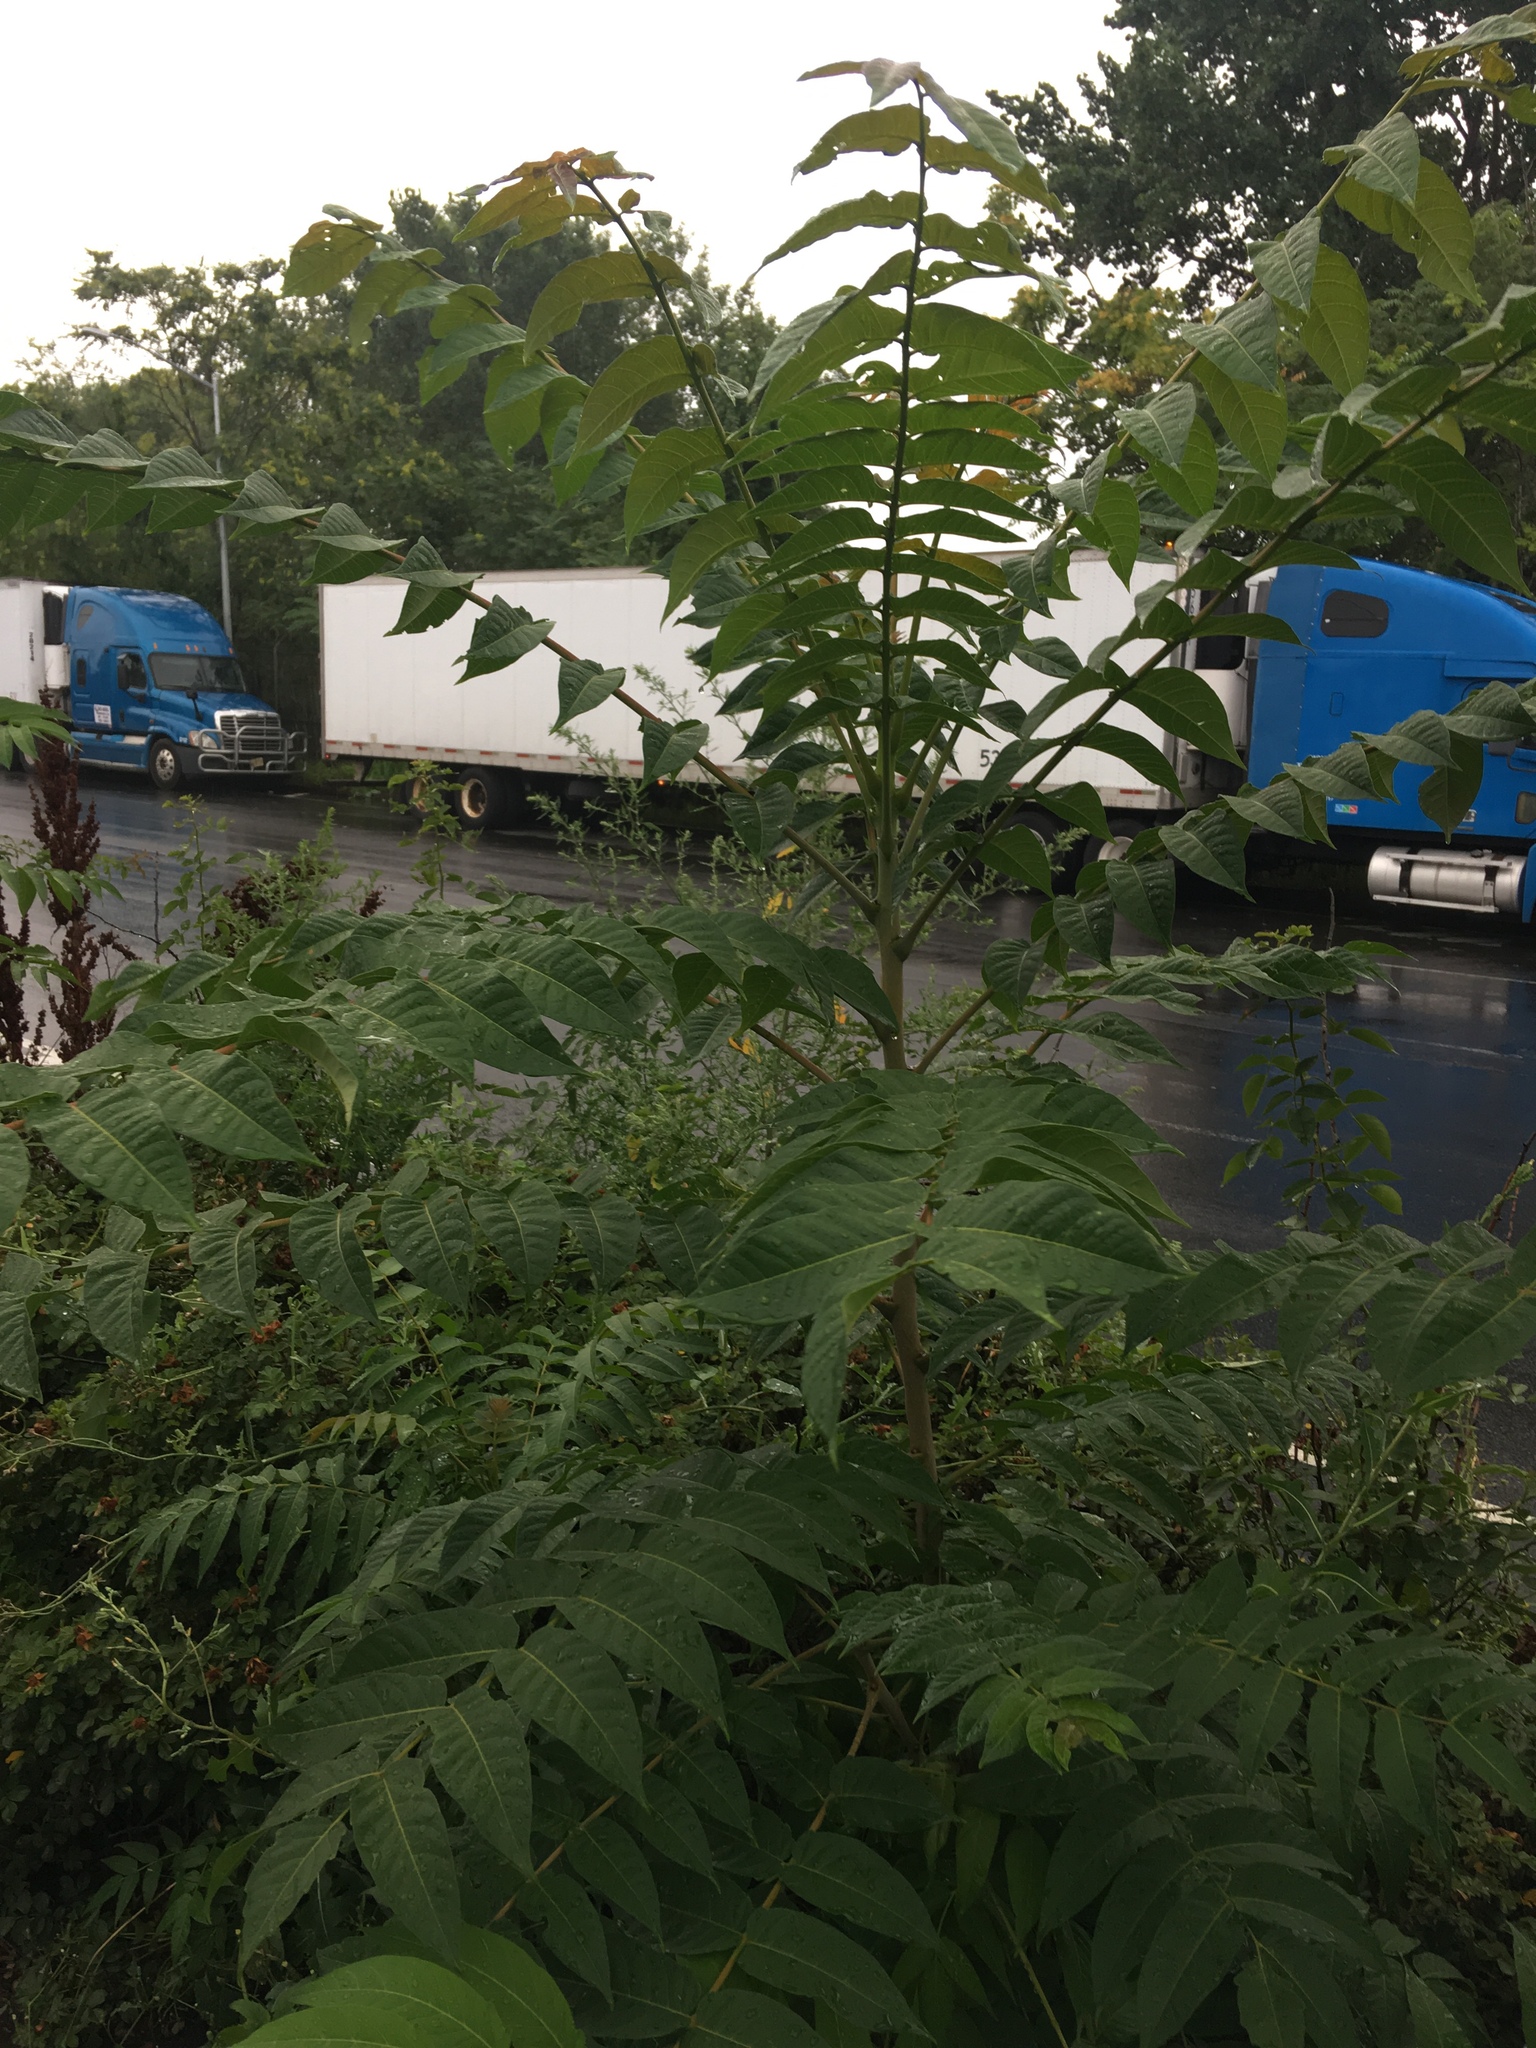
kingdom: Plantae
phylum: Tracheophyta
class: Magnoliopsida
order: Sapindales
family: Simaroubaceae
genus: Ailanthus
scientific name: Ailanthus altissima
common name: Tree-of-heaven
